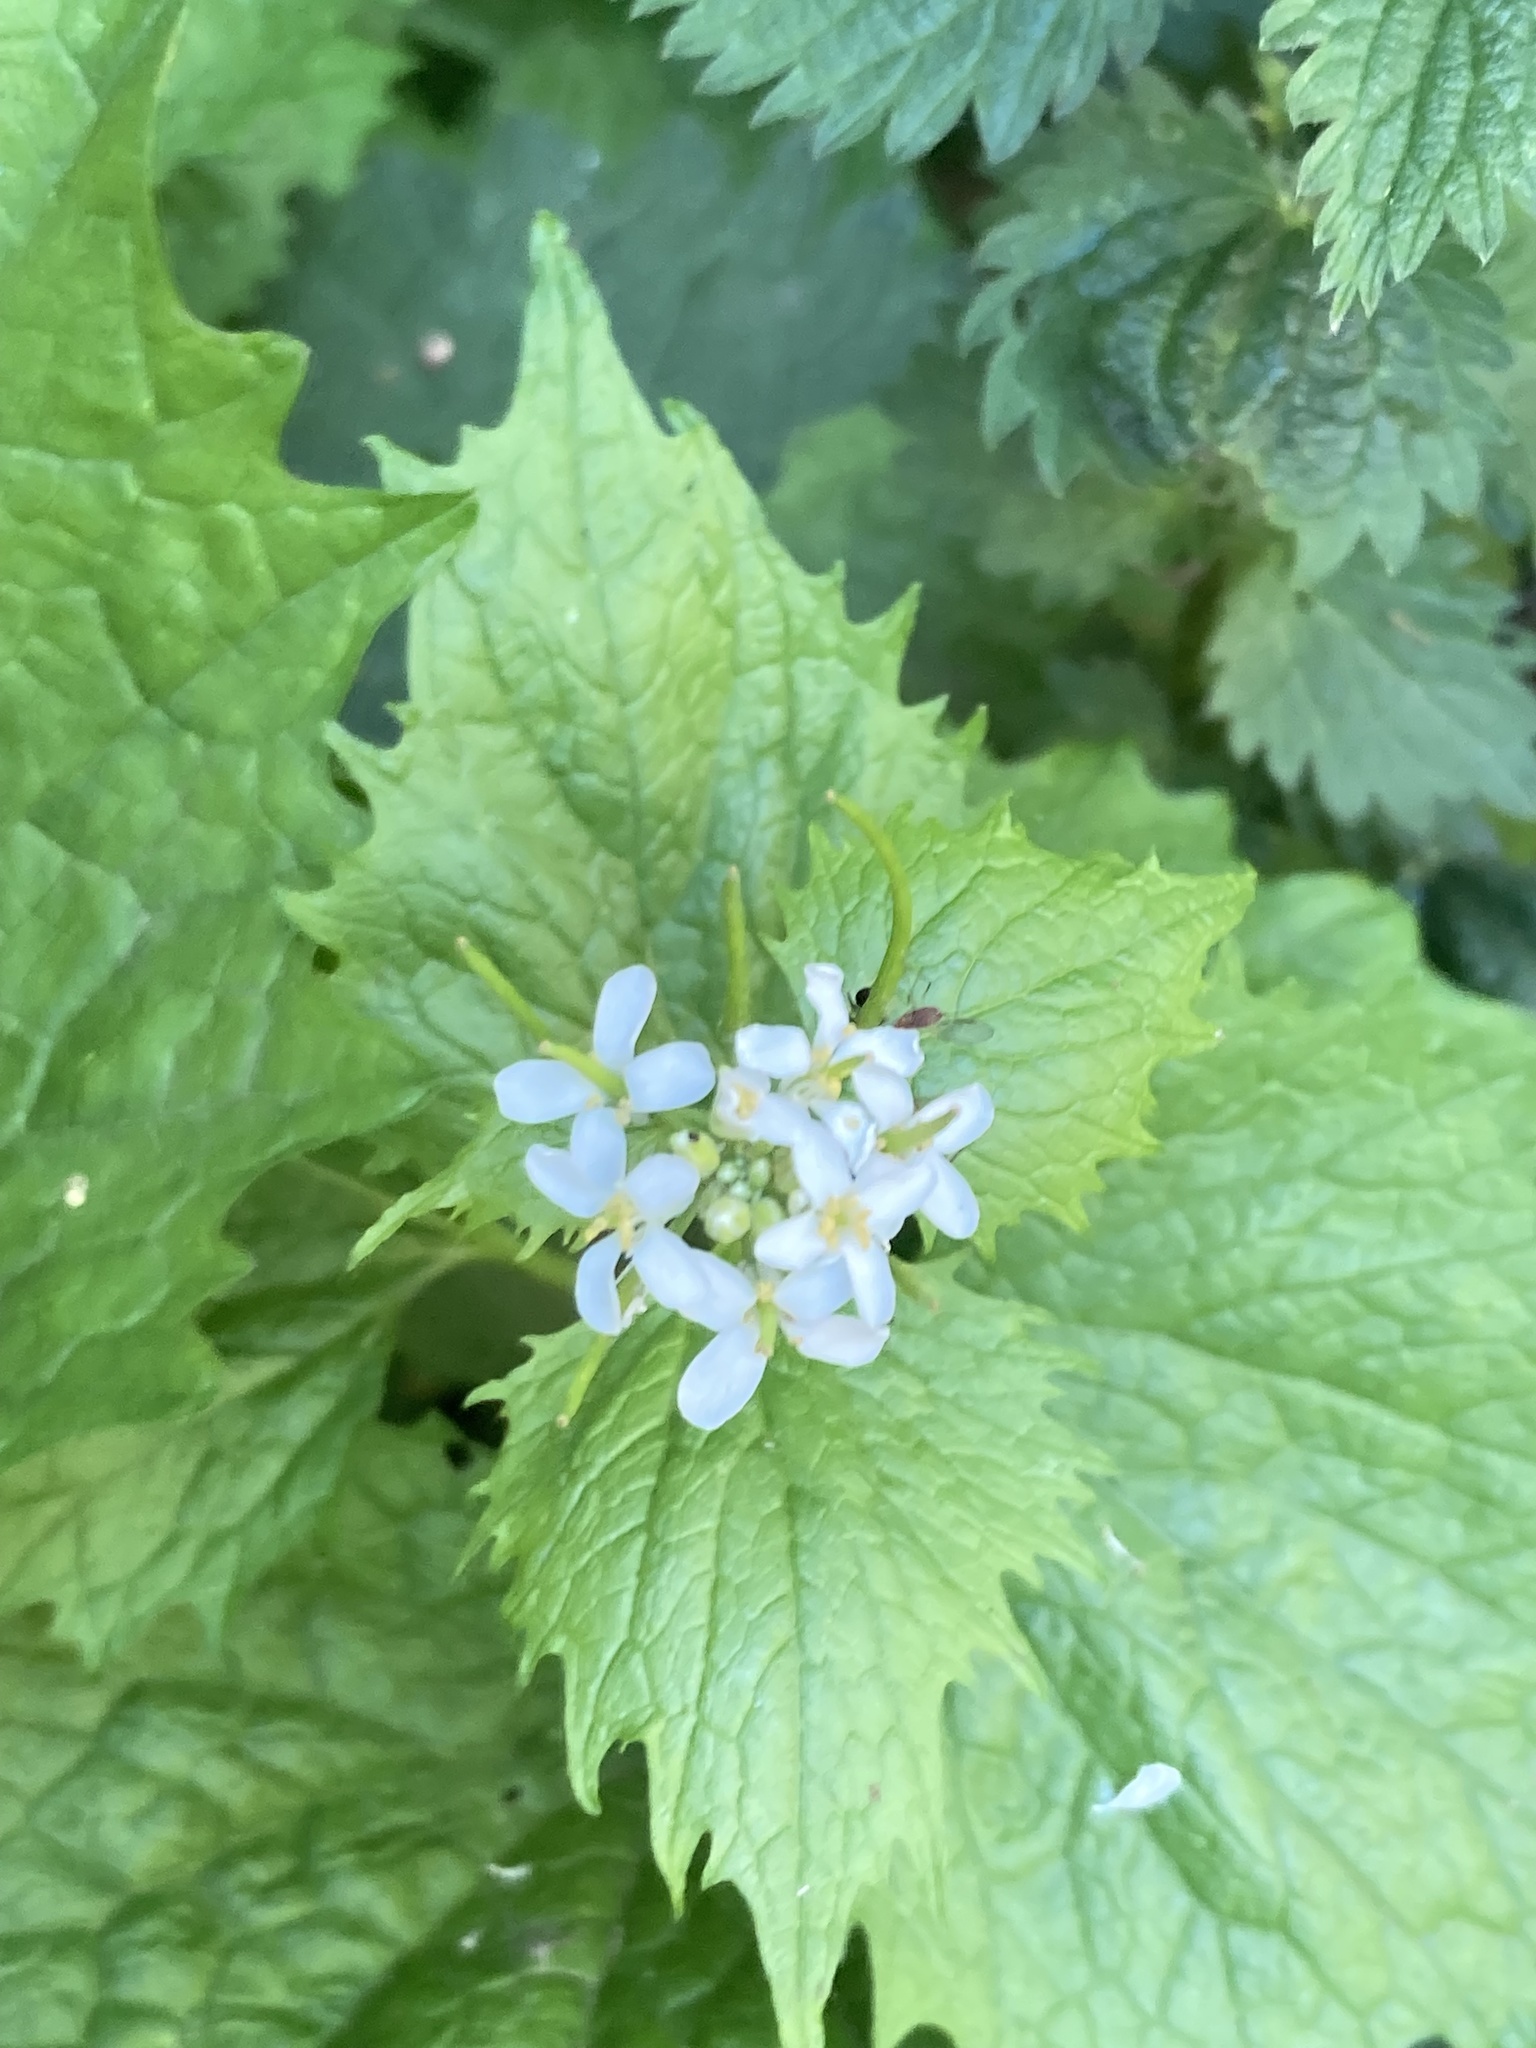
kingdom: Plantae
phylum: Tracheophyta
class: Magnoliopsida
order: Brassicales
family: Brassicaceae
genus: Alliaria
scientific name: Alliaria petiolata
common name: Garlic mustard
